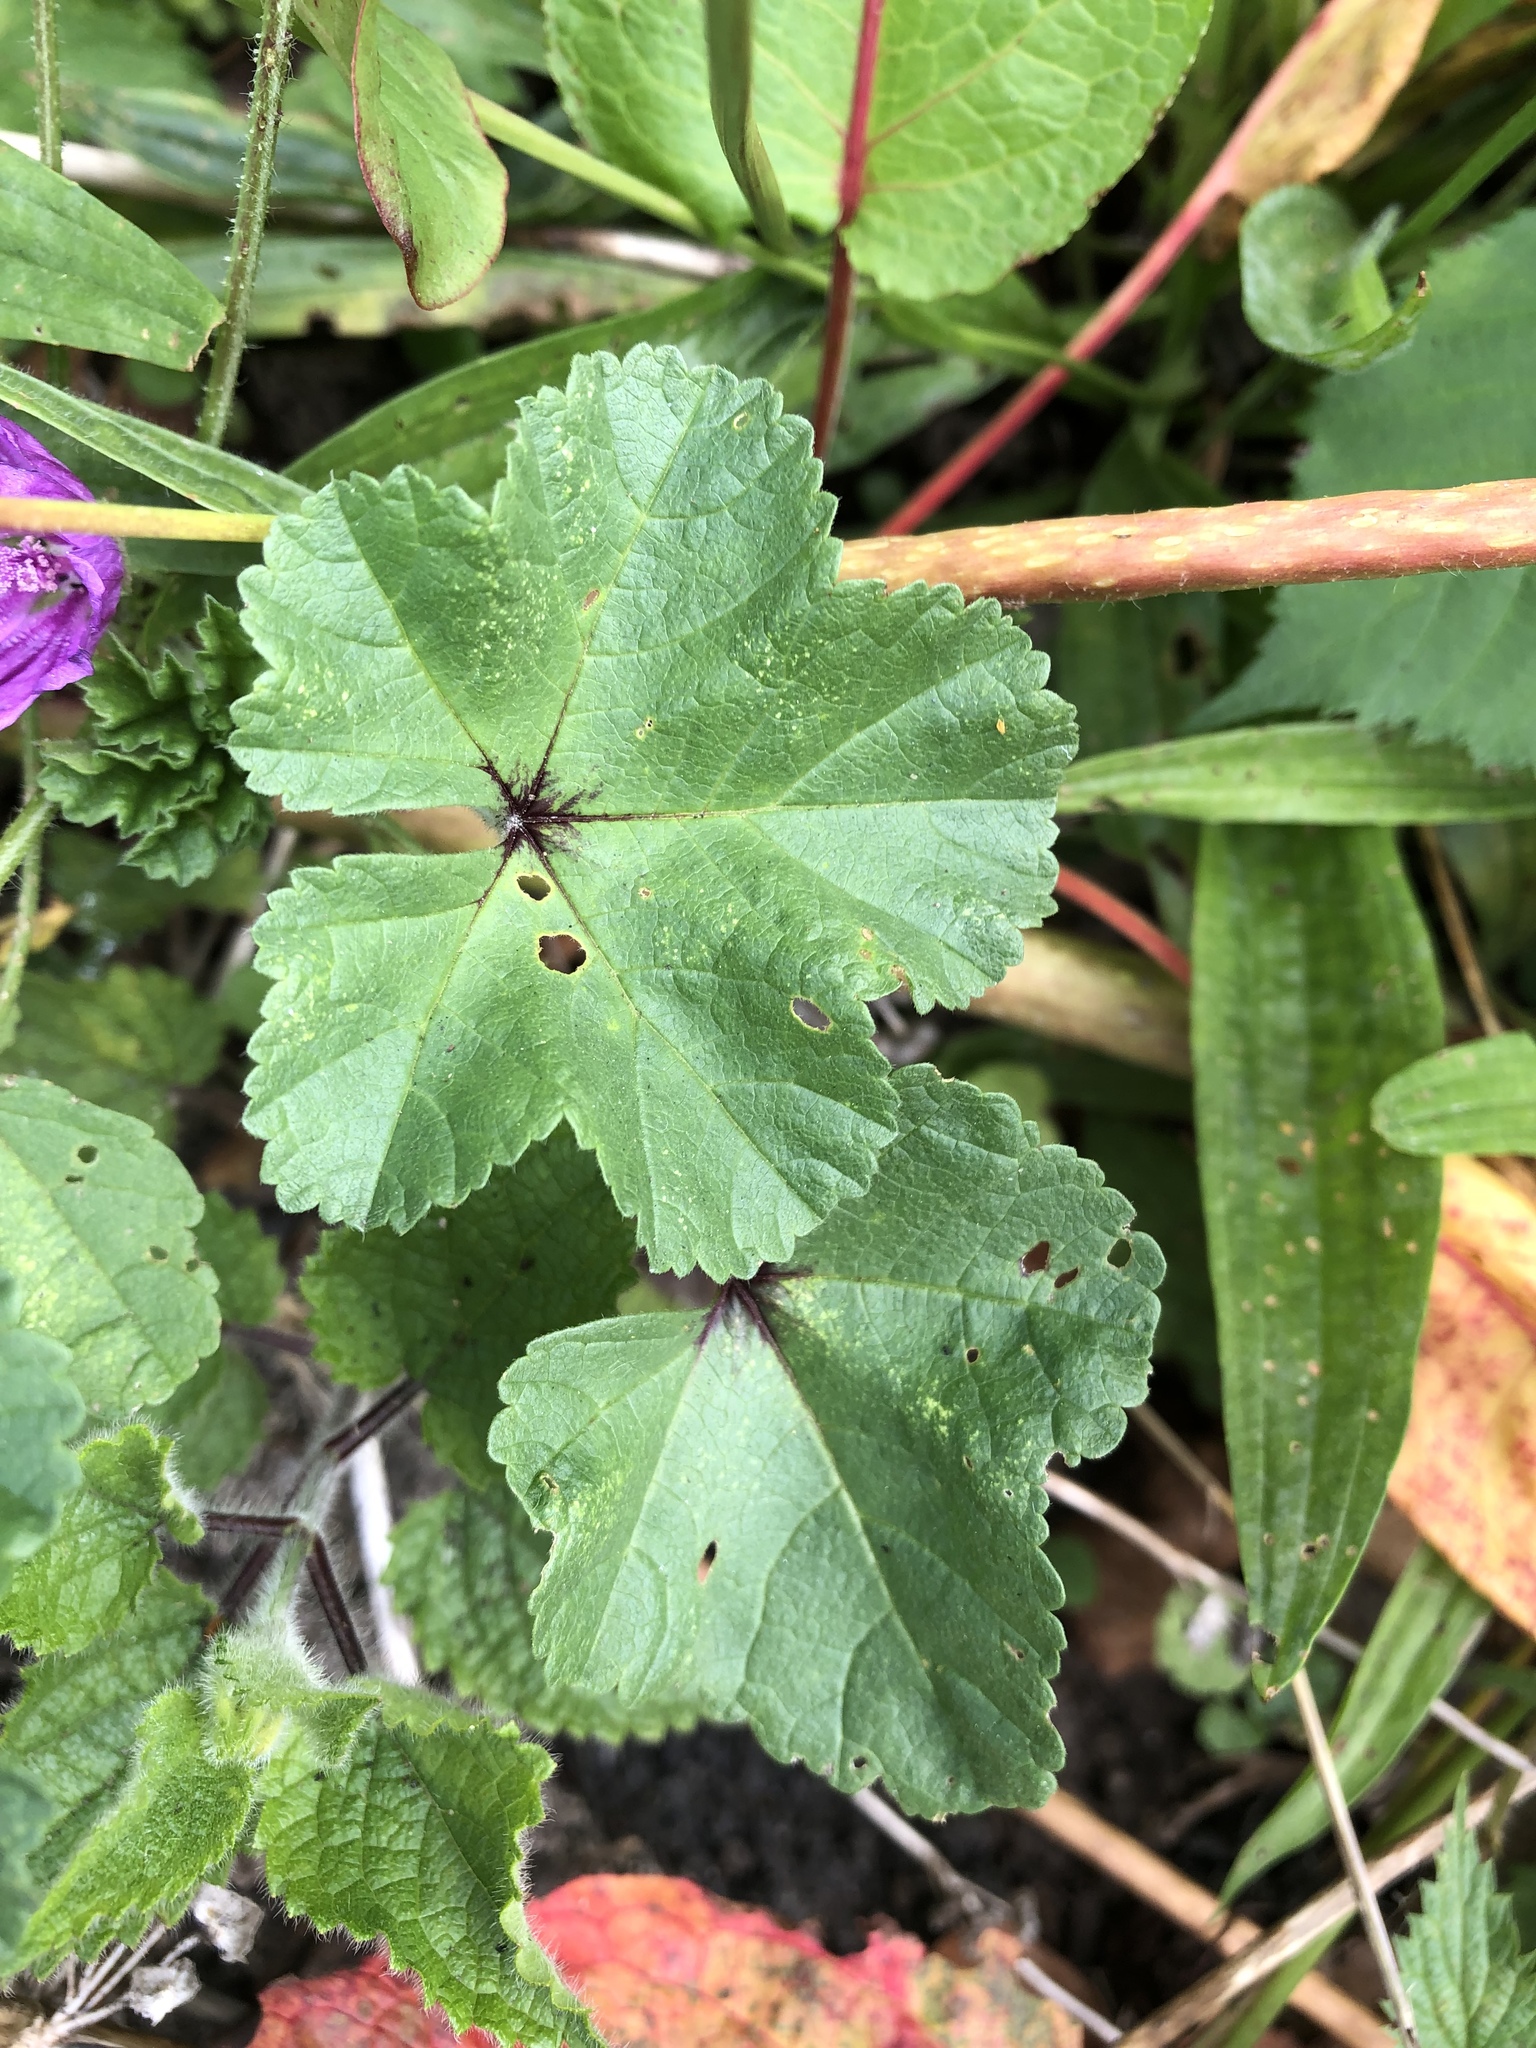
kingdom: Plantae
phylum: Tracheophyta
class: Magnoliopsida
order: Malvales
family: Malvaceae
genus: Malva
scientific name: Malva sylvestris
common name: Common mallow
